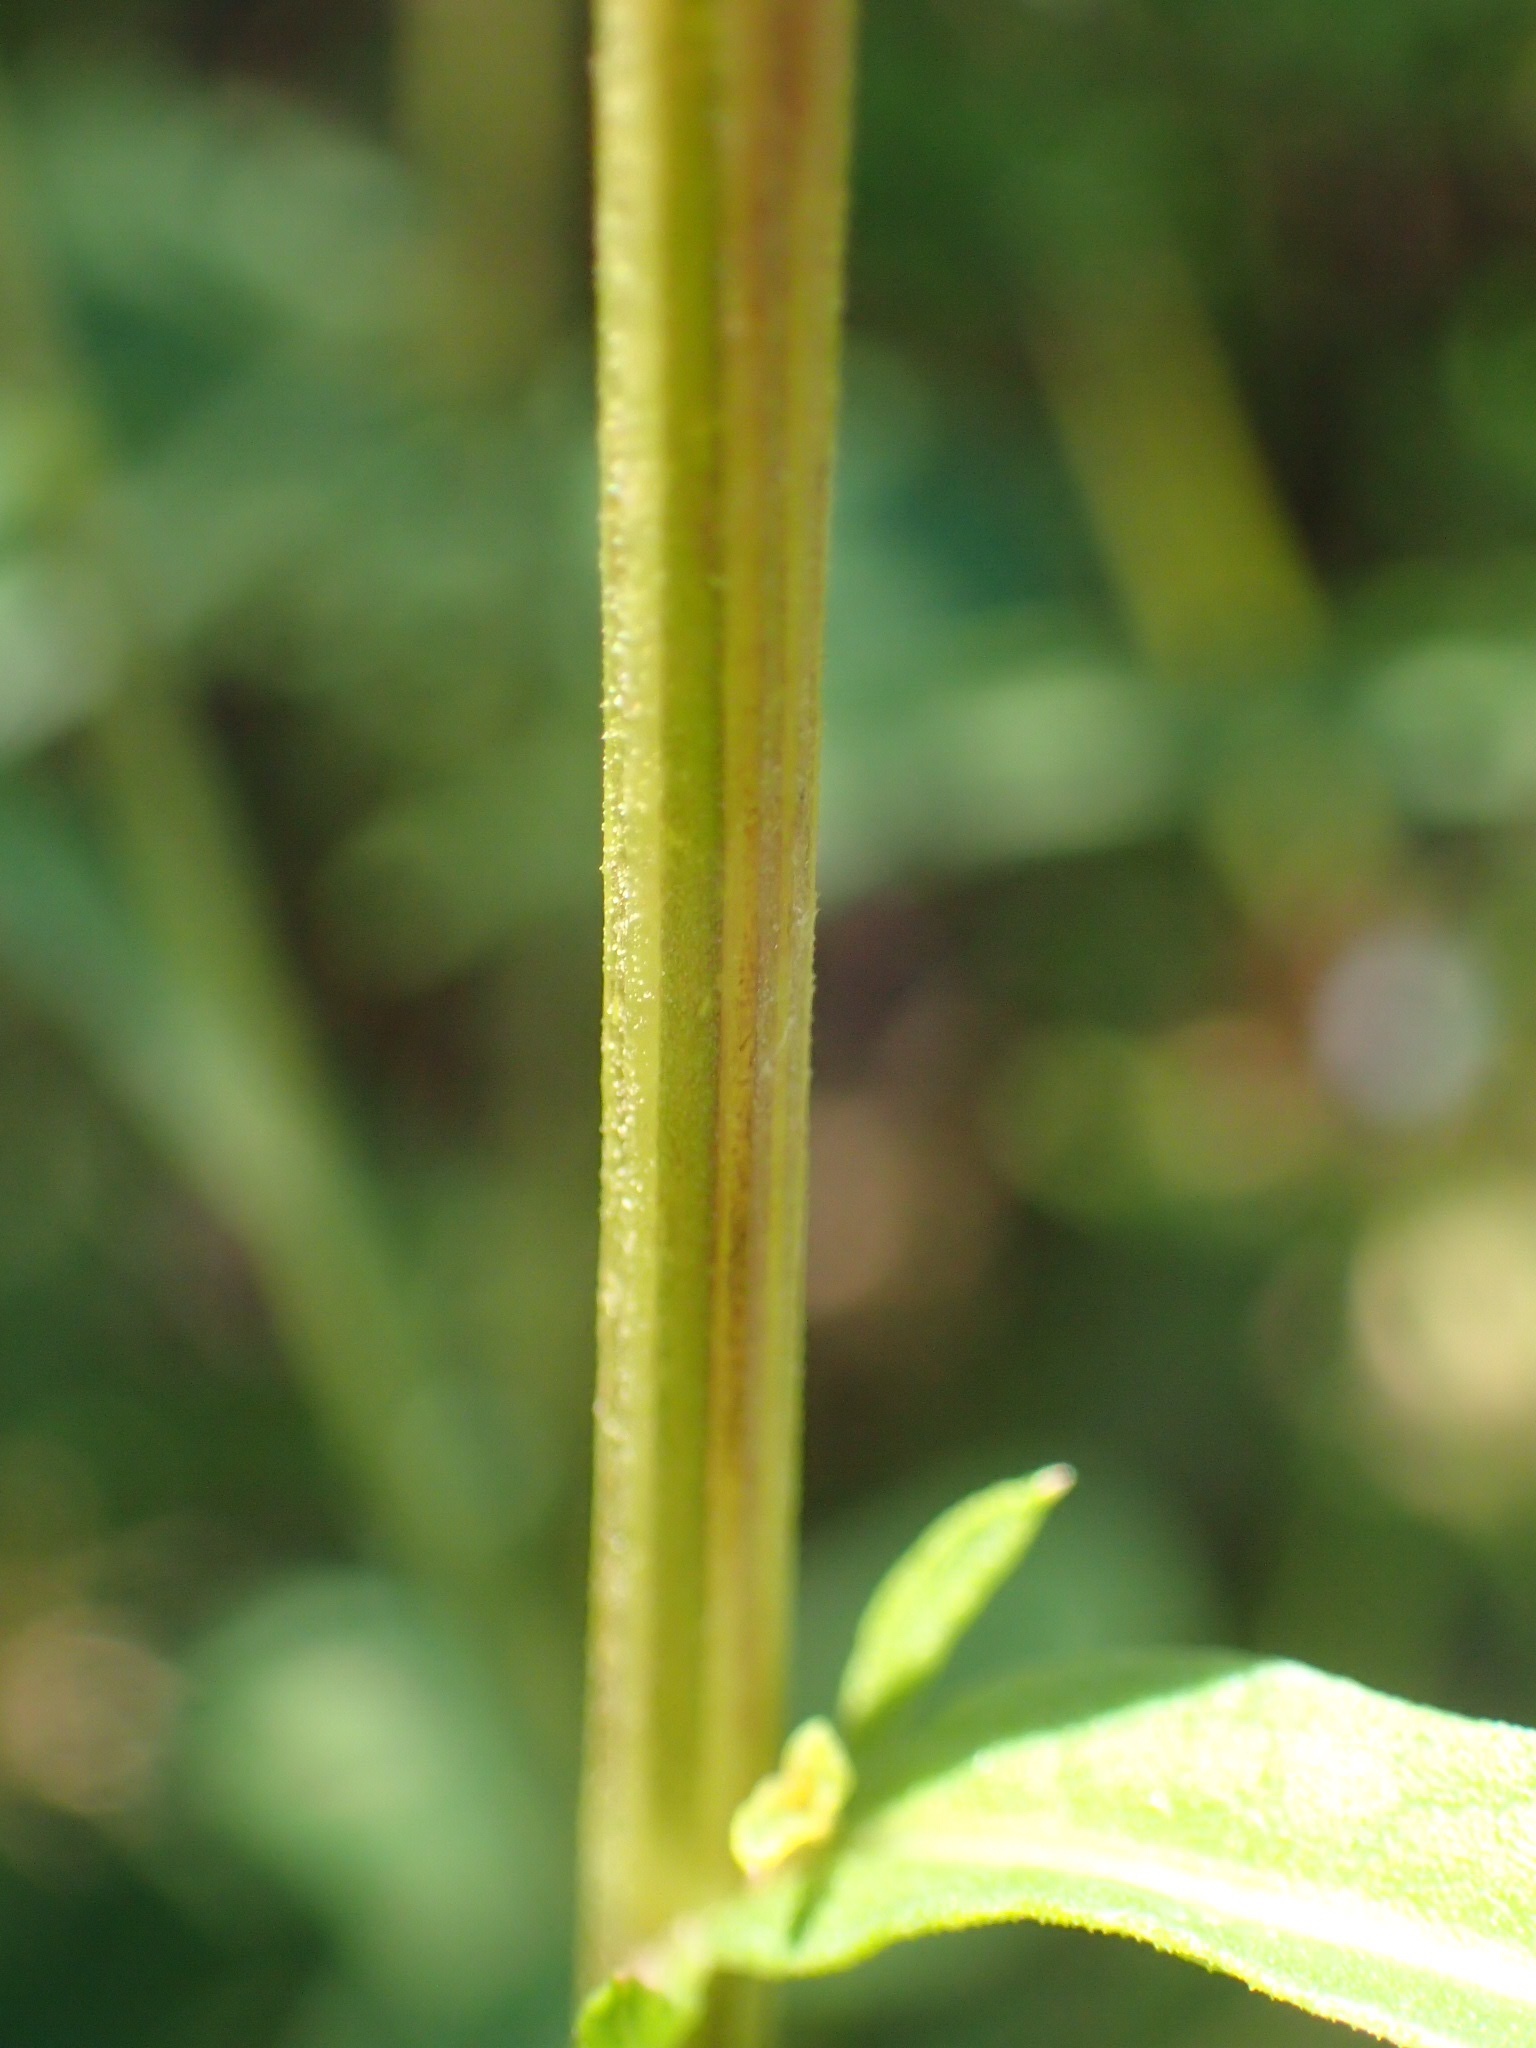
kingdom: Plantae
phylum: Tracheophyta
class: Magnoliopsida
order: Asterales
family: Asteraceae
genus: Centaurea
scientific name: Centaurea stoebe
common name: Spotted knapweed
